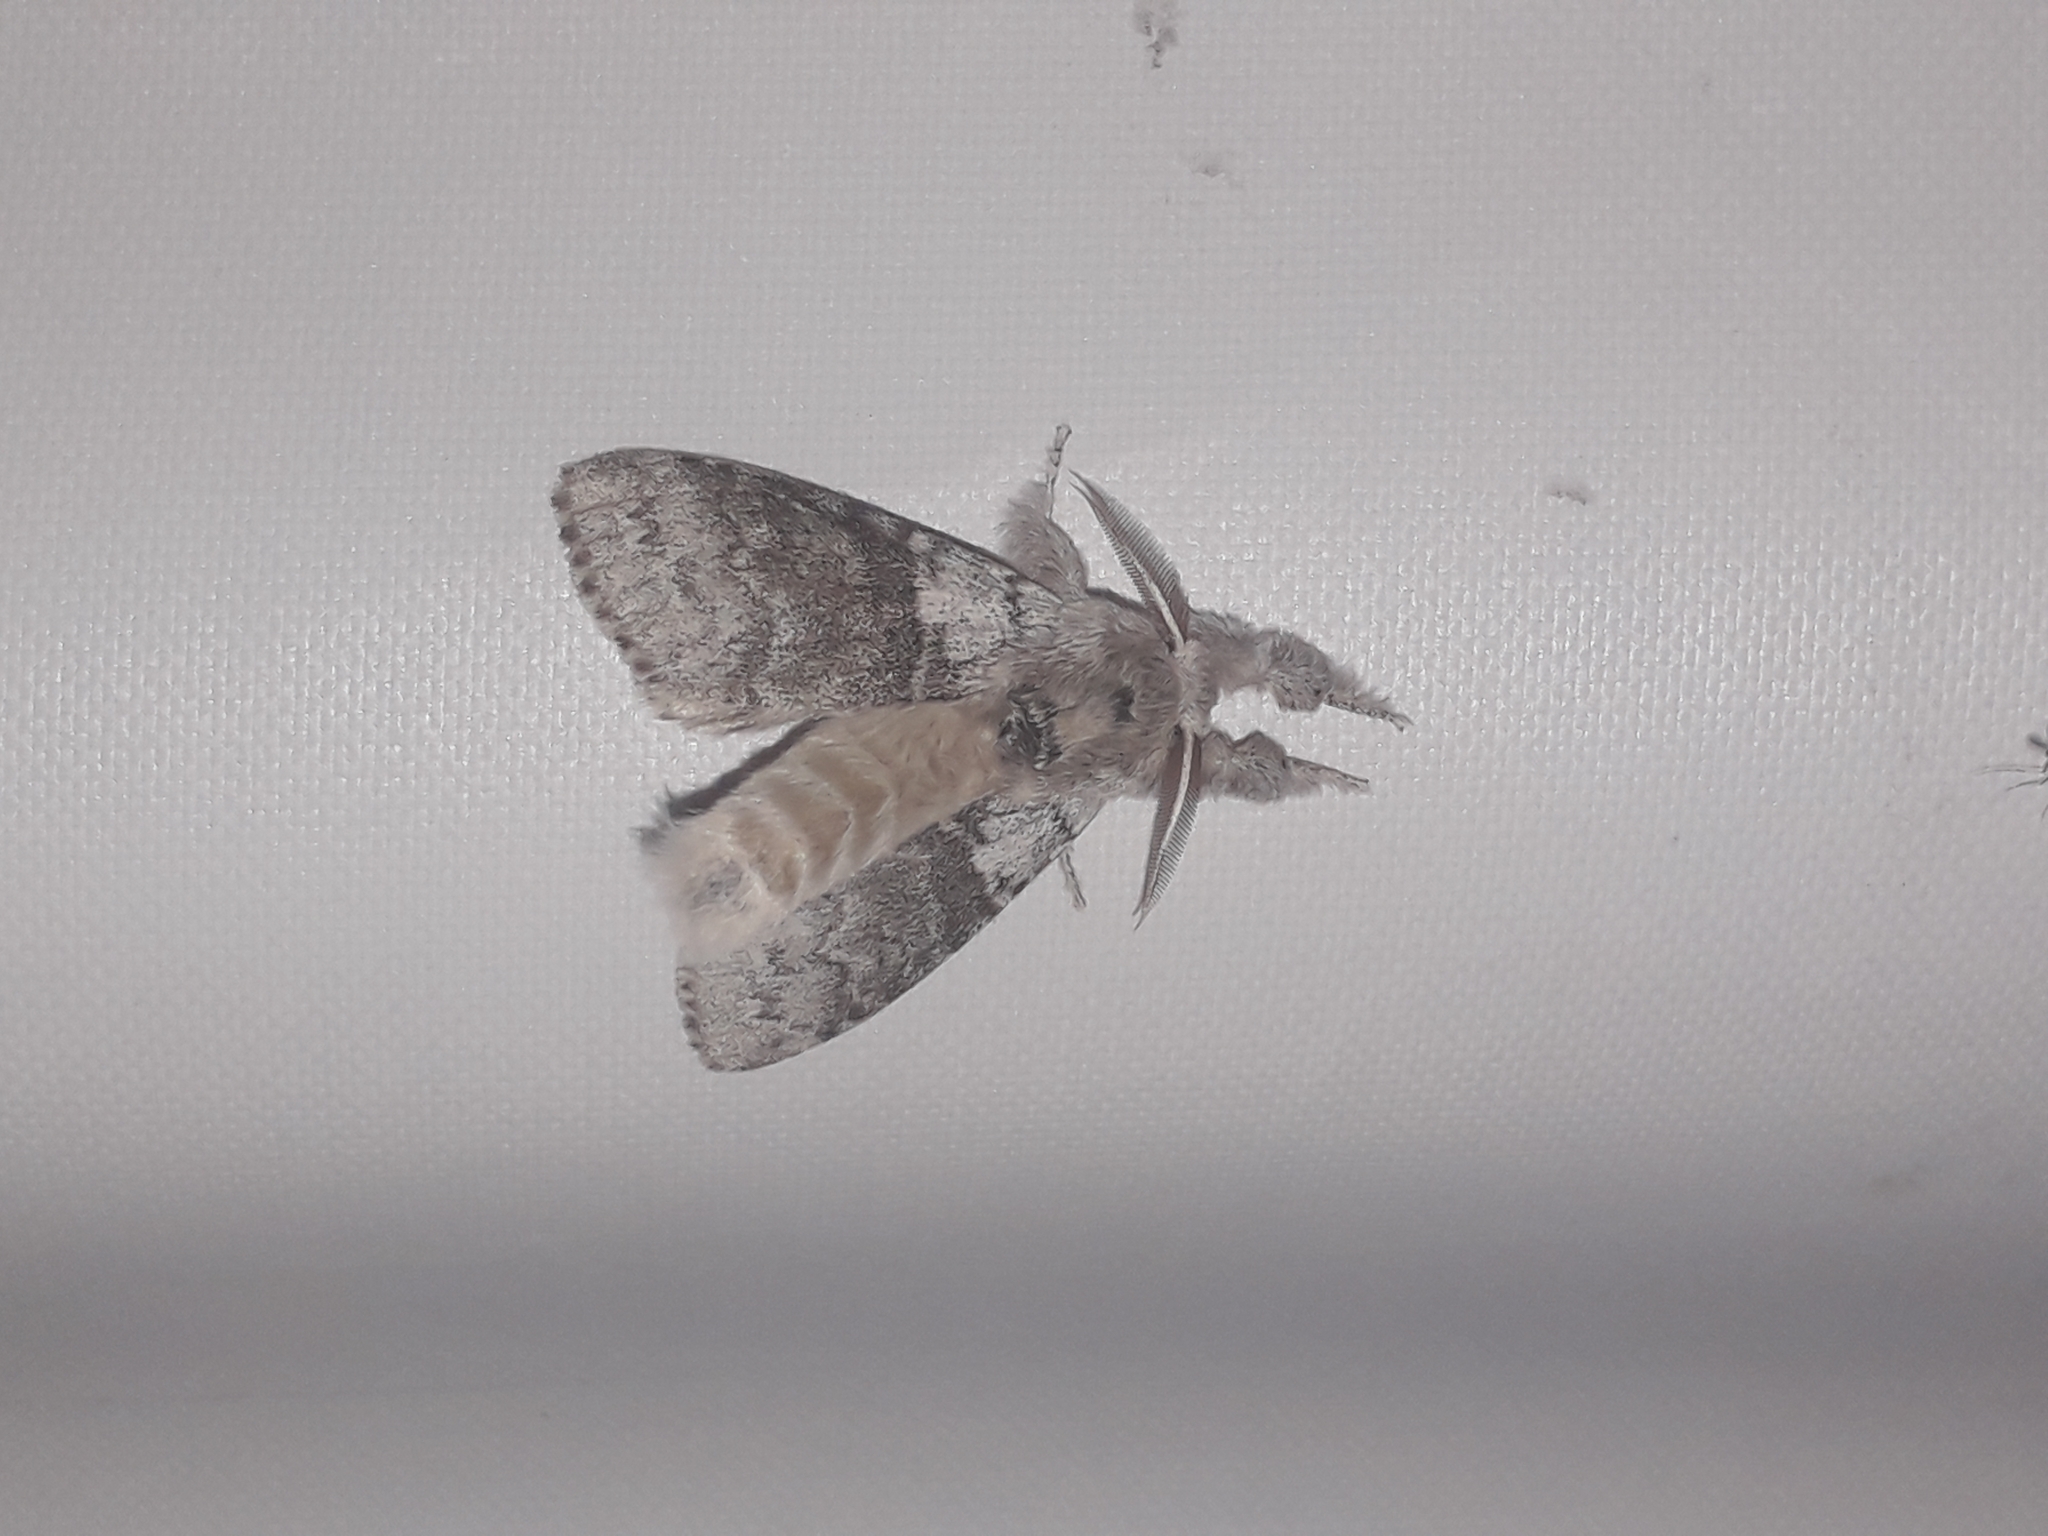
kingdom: Animalia
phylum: Arthropoda
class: Insecta
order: Lepidoptera
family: Erebidae
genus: Calliteara
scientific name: Calliteara pudibunda
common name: Pale tussock
